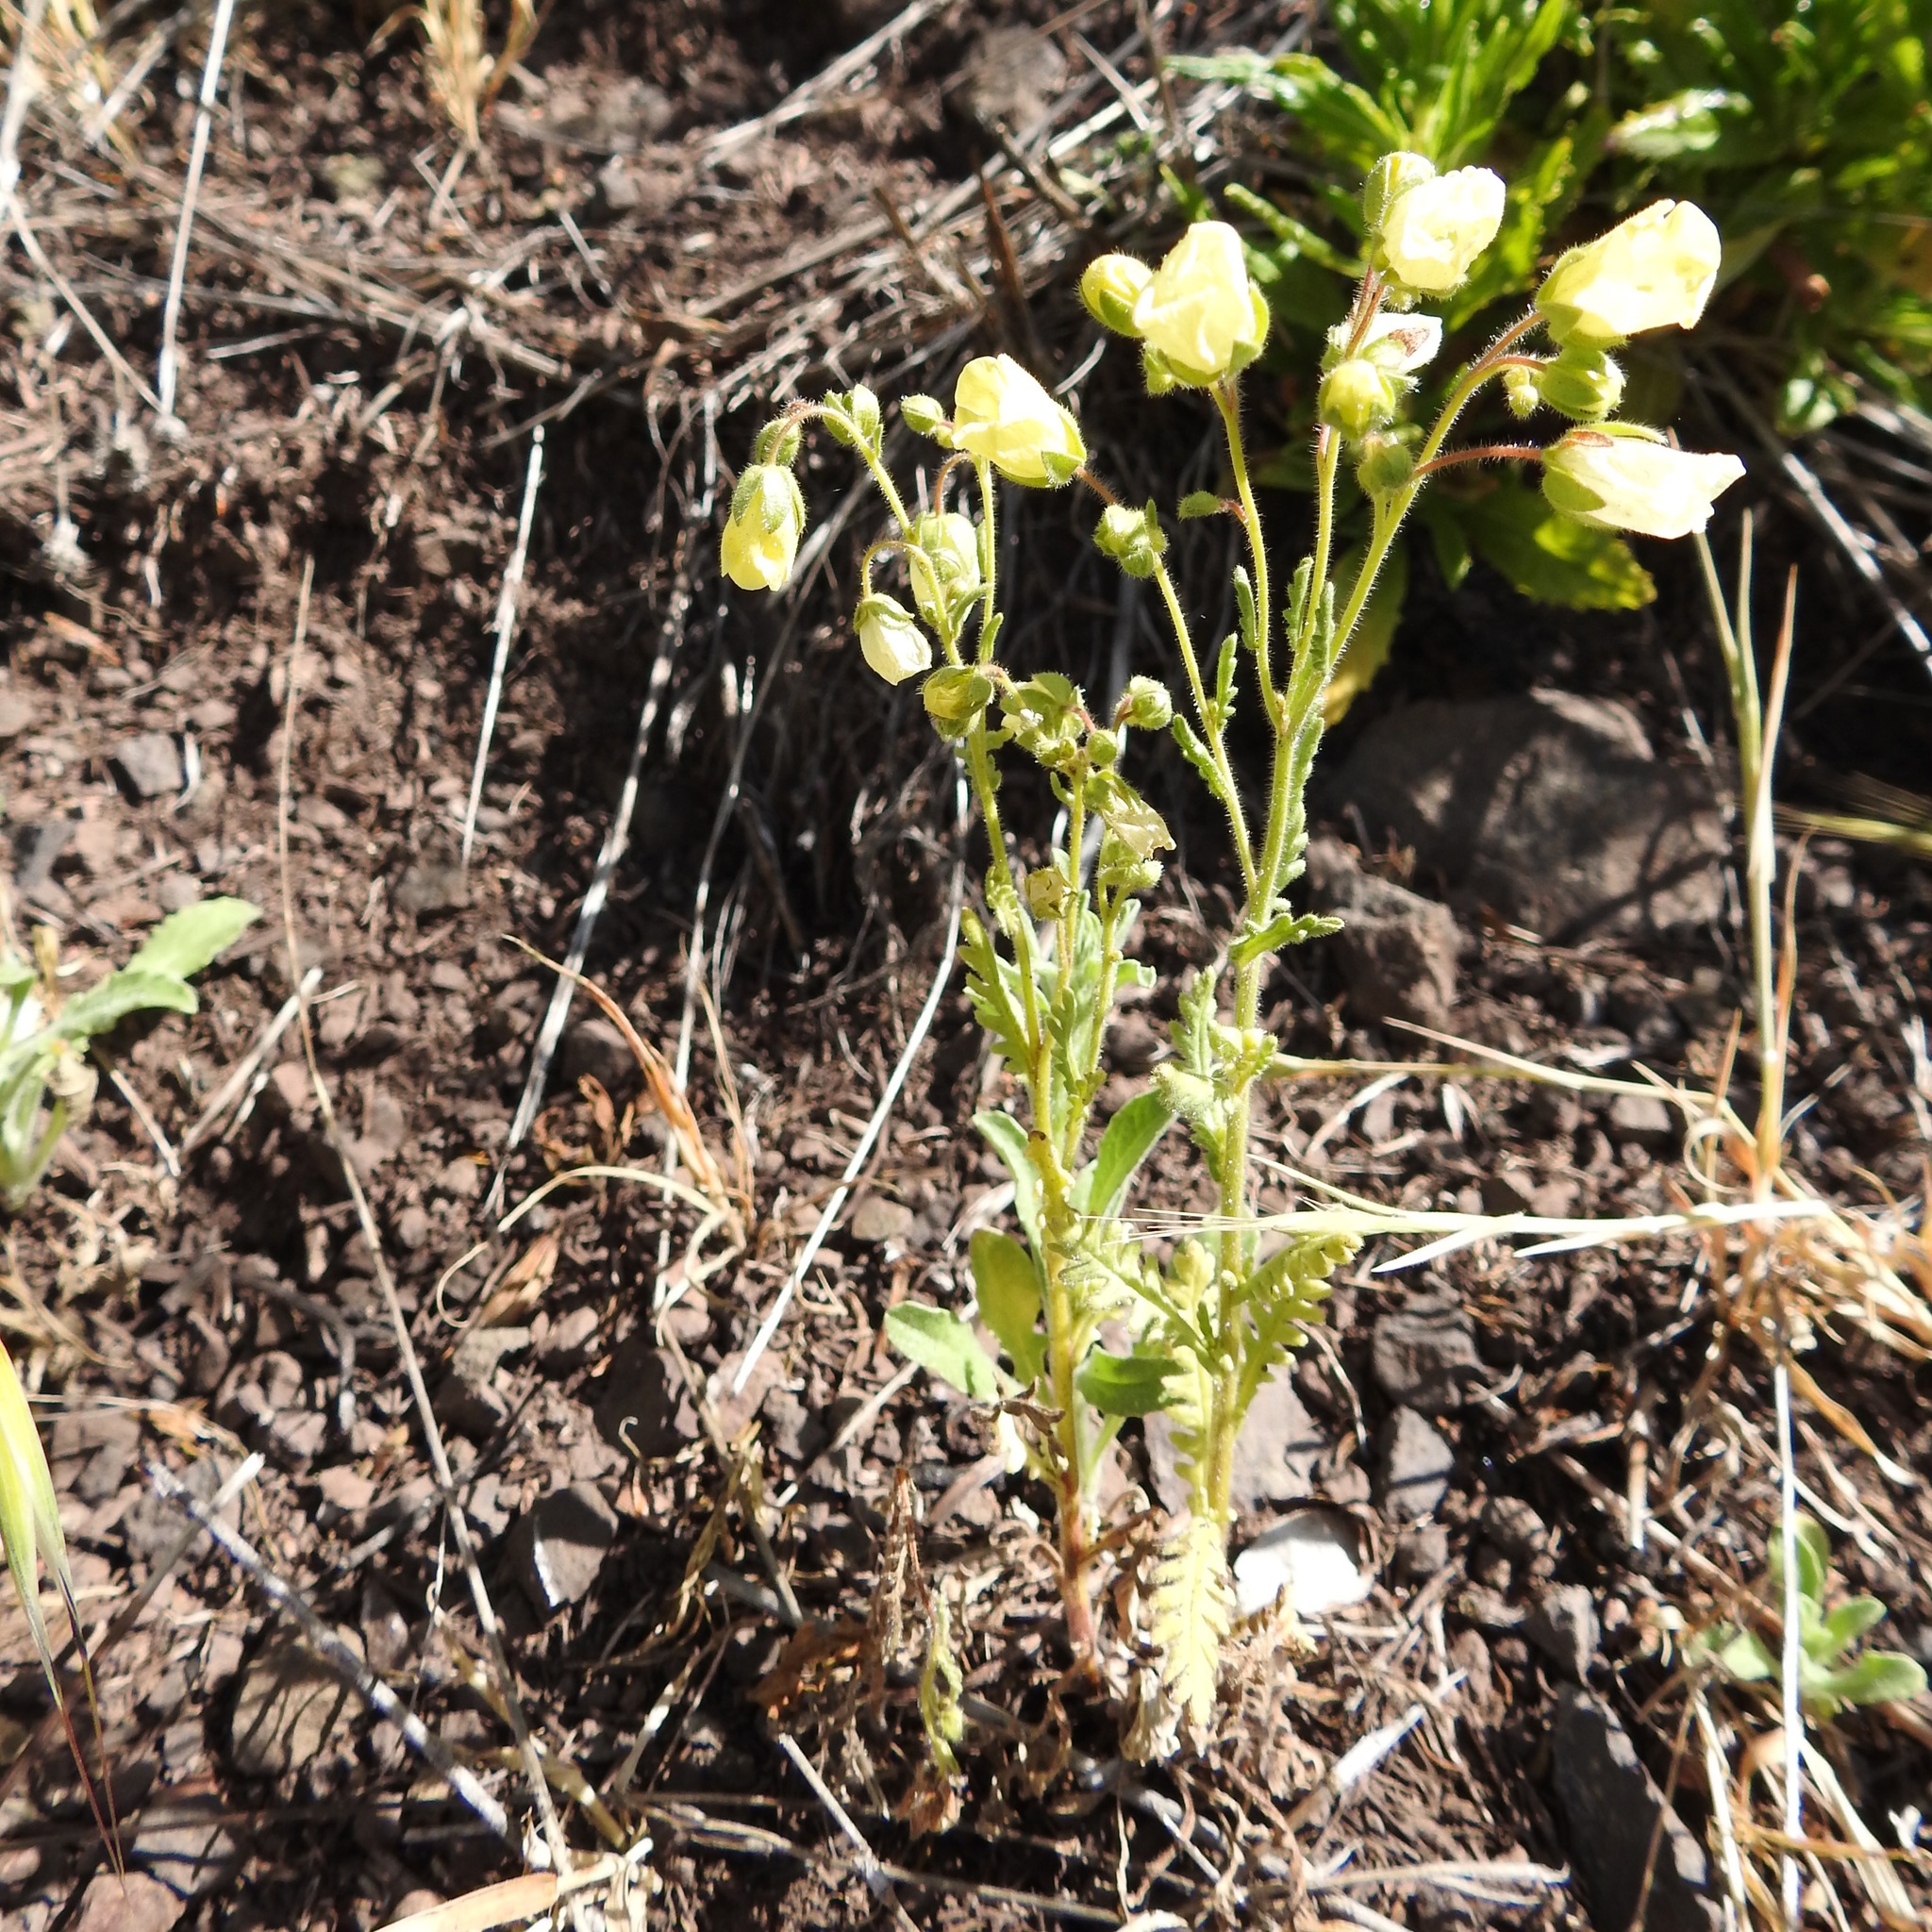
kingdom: Plantae
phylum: Tracheophyta
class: Magnoliopsida
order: Boraginales
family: Hydrophyllaceae
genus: Emmenanthe
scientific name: Emmenanthe penduliflora
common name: Whispering-bells
